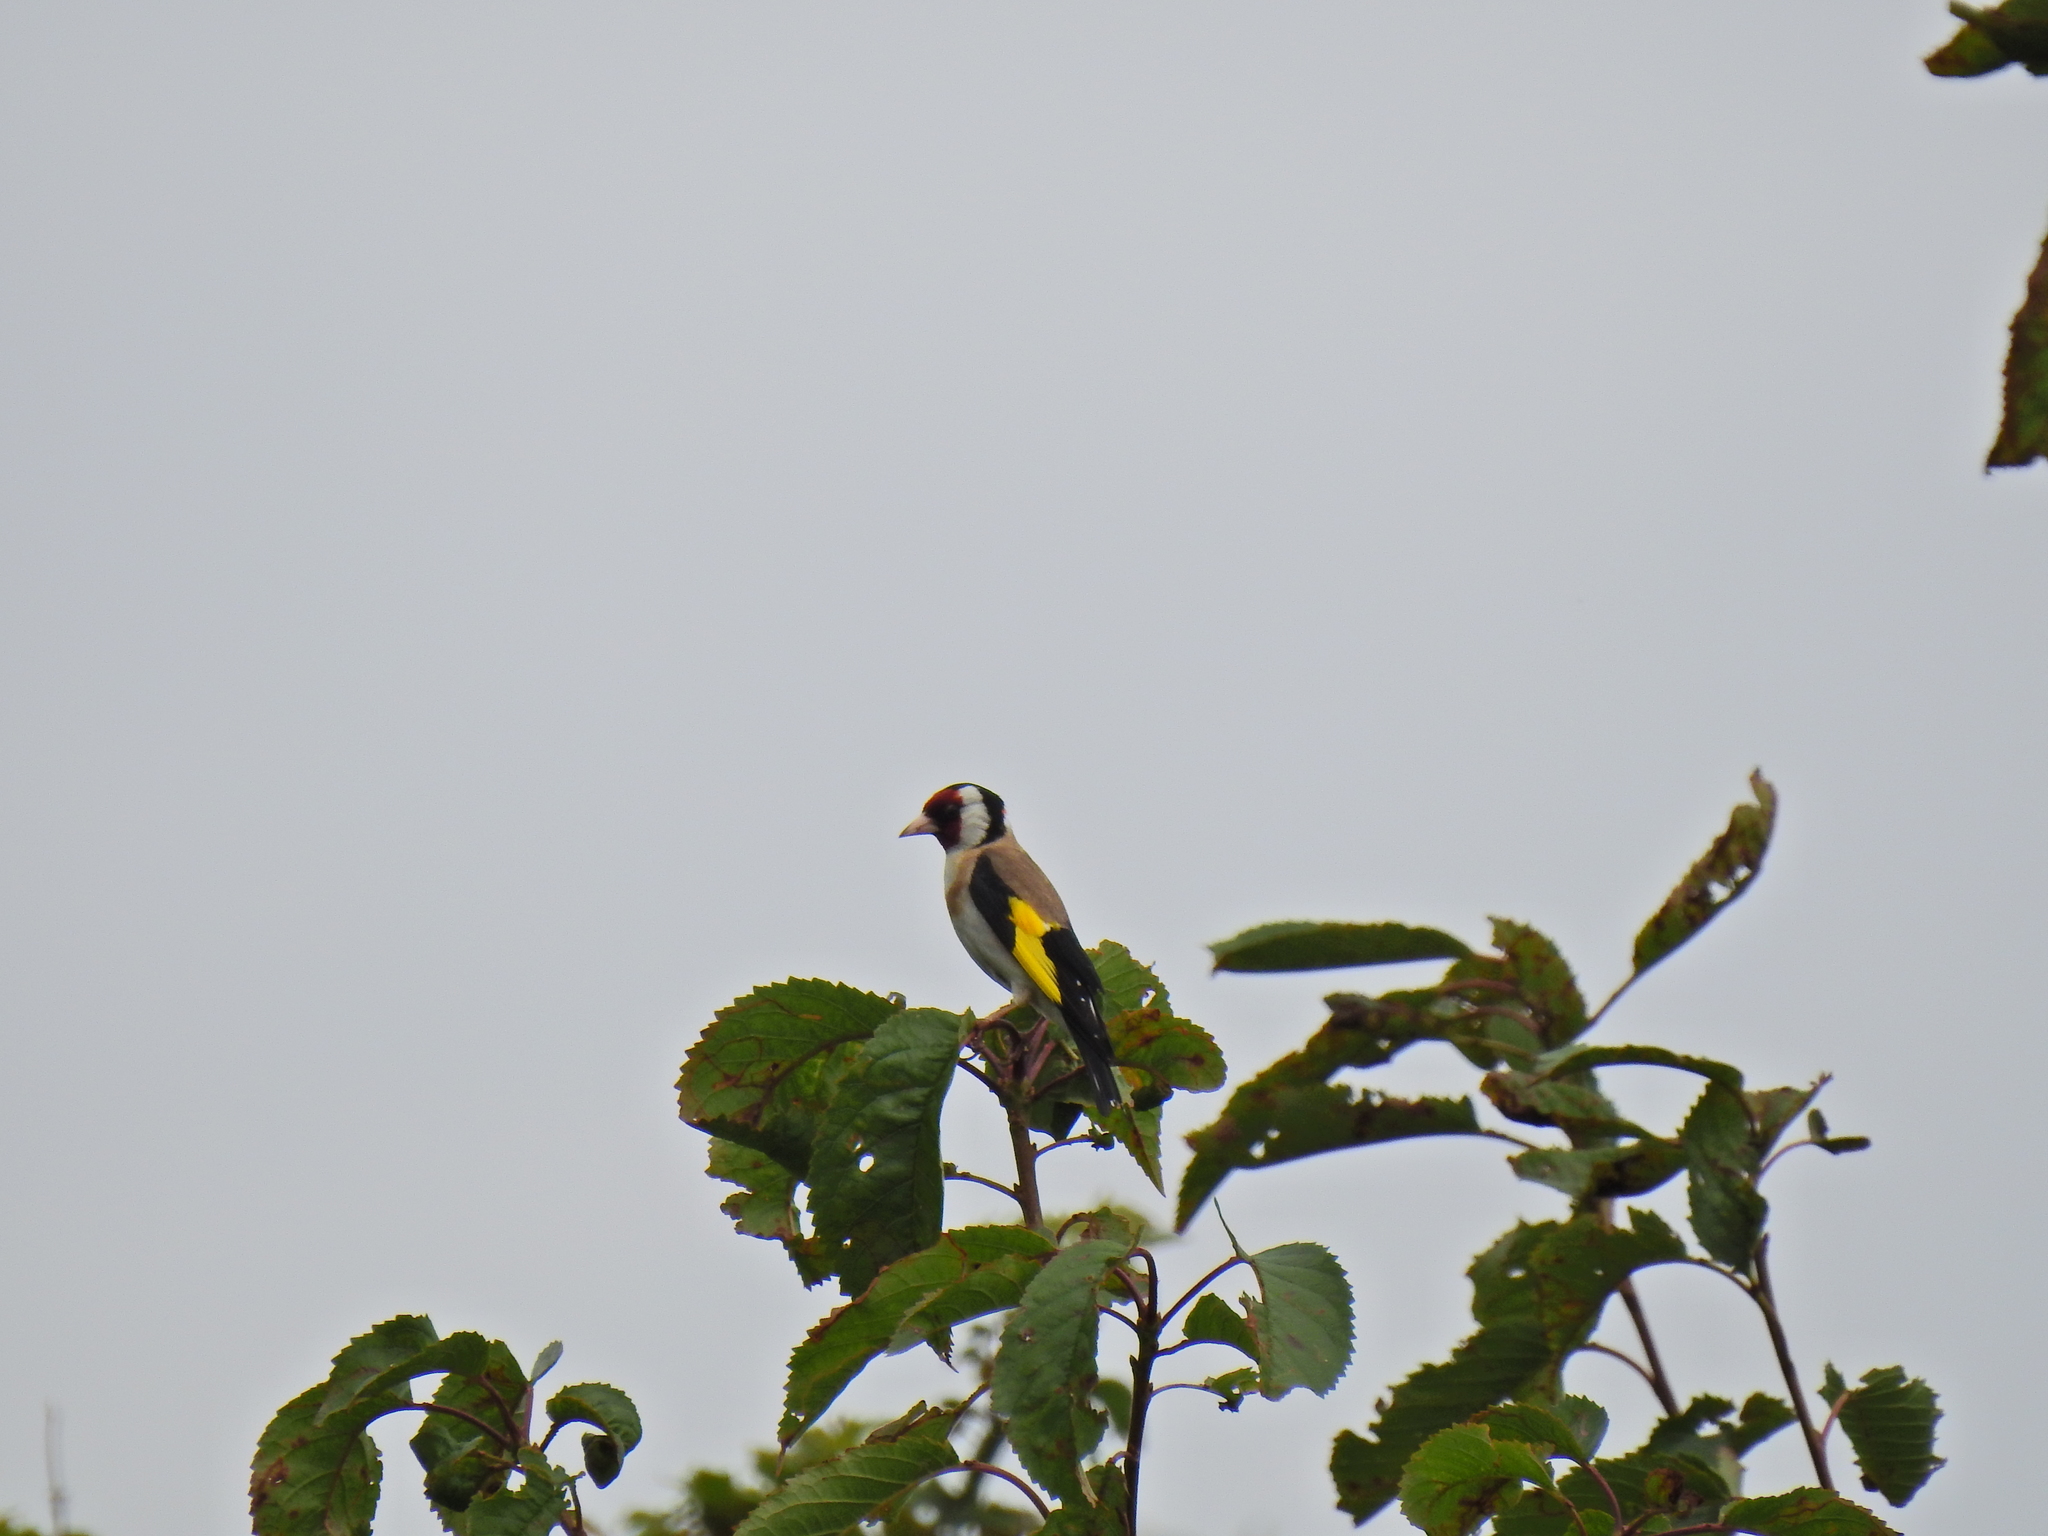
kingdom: Animalia
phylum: Chordata
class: Aves
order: Passeriformes
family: Fringillidae
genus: Carduelis
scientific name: Carduelis carduelis
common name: European goldfinch
